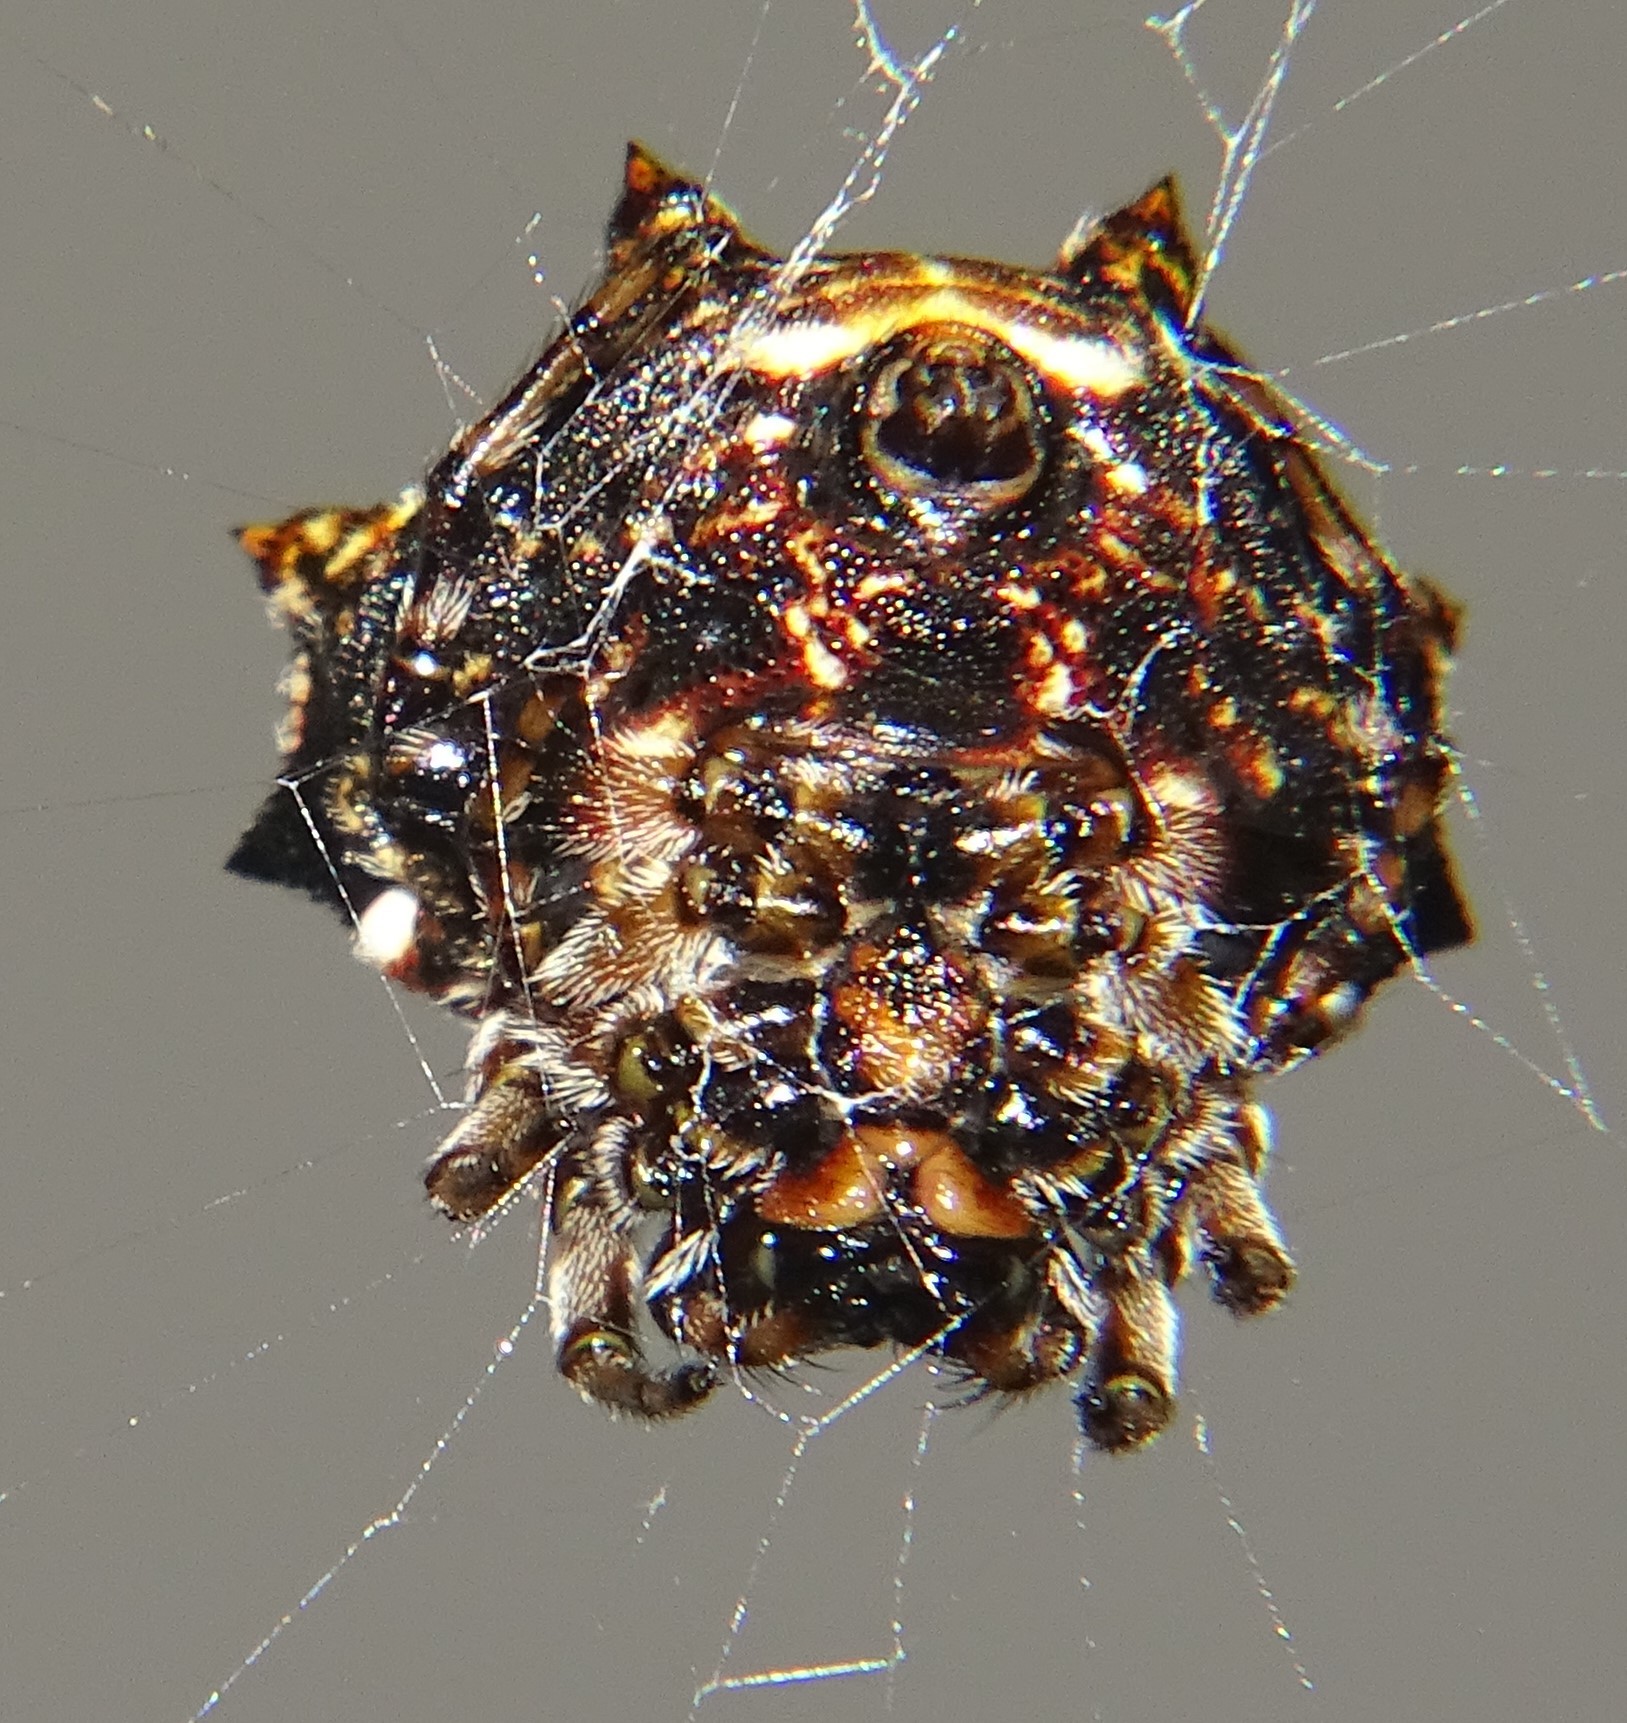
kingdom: Animalia
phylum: Arthropoda
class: Arachnida
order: Araneae
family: Araneidae
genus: Thelacantha
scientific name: Thelacantha brevispina
